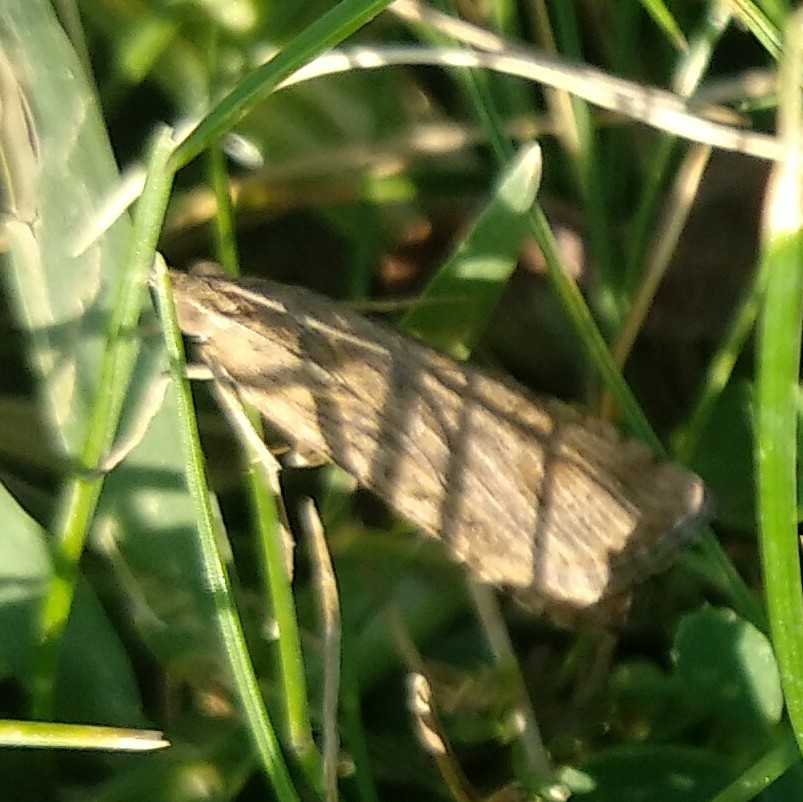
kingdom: Animalia
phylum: Arthropoda
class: Insecta
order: Lepidoptera
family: Crambidae
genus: Nomophila
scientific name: Nomophila noctuella
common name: Rush veneer
